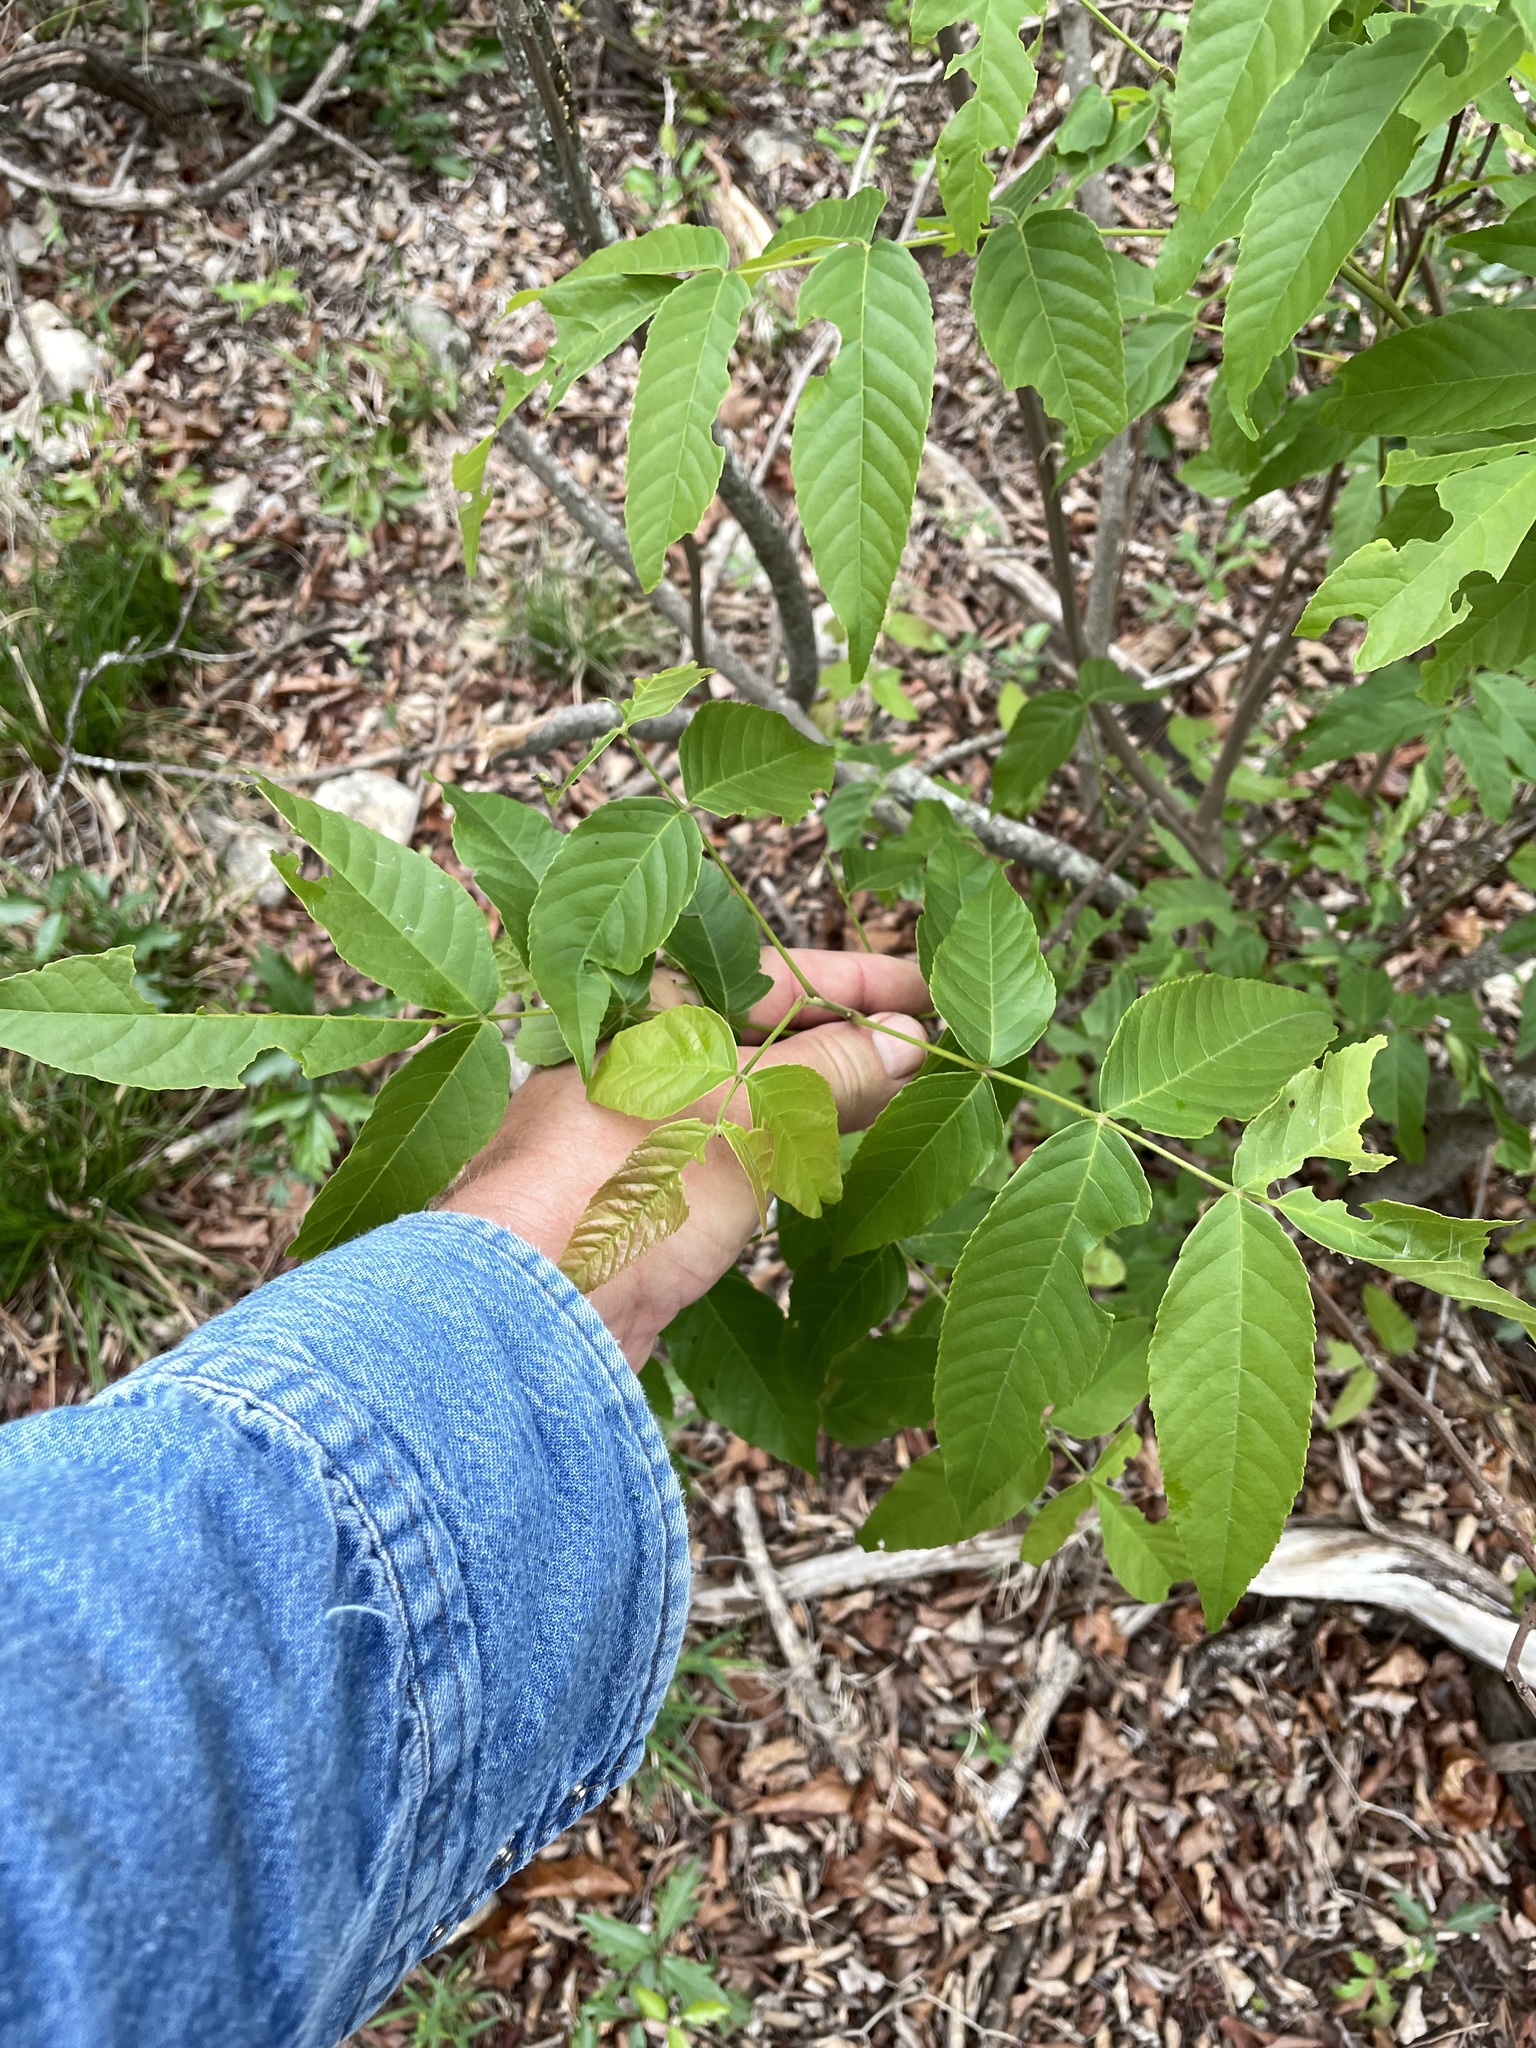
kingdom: Plantae
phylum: Tracheophyta
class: Magnoliopsida
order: Sapindales
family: Sapindaceae
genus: Ungnadia
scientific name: Ungnadia speciosa
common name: Texas-buckeye
